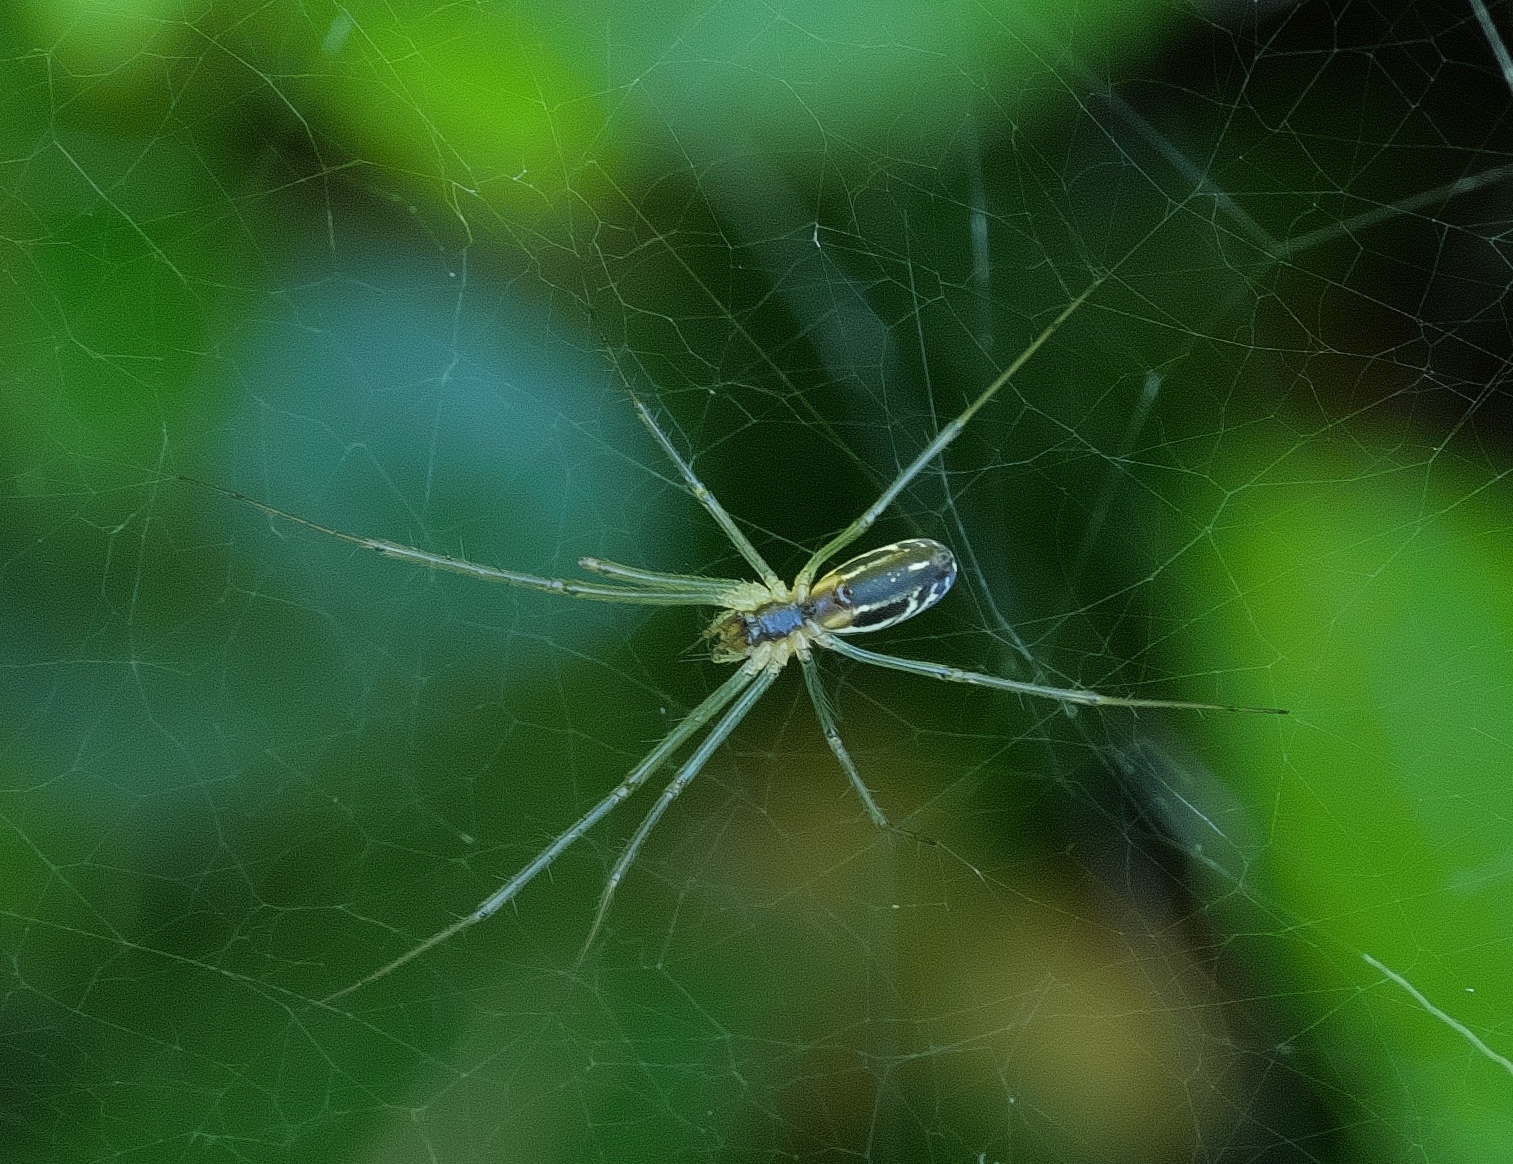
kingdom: Animalia
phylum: Arthropoda
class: Arachnida
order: Araneae
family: Linyphiidae
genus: Neriene
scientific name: Neriene litigiosa
